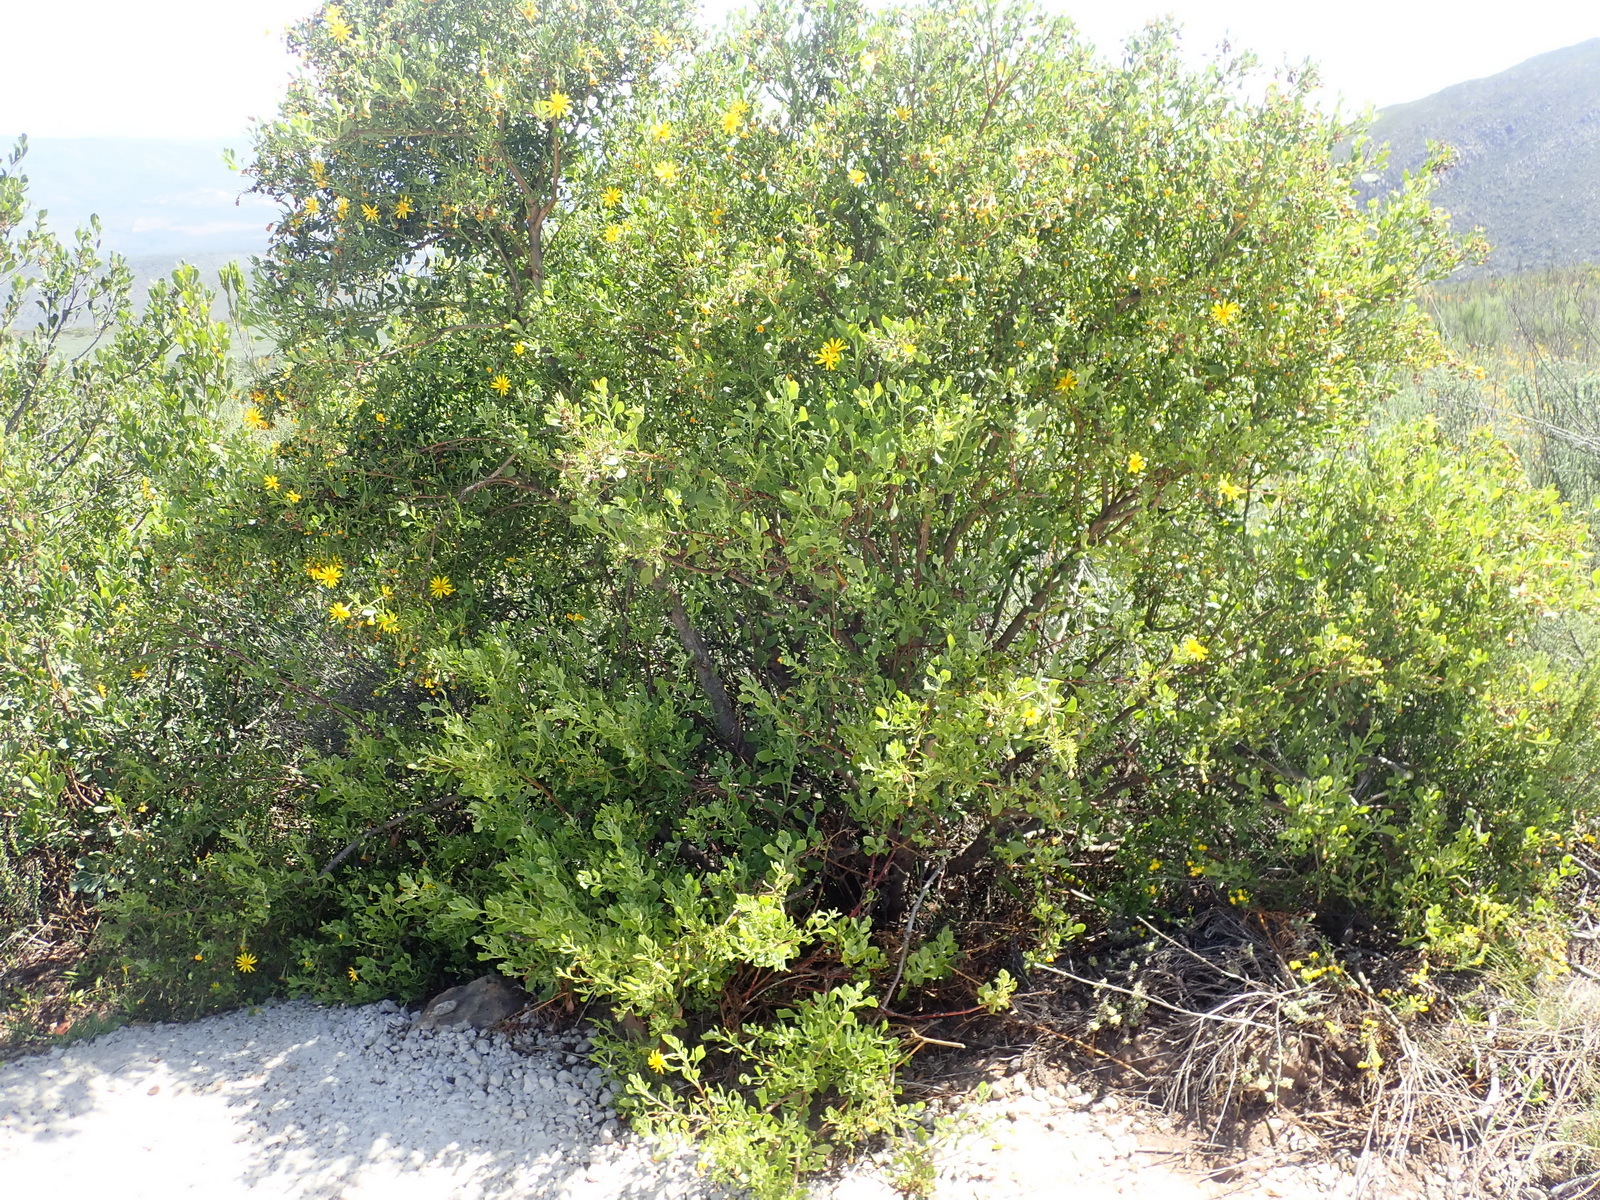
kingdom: Plantae
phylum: Tracheophyta
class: Magnoliopsida
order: Asterales
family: Asteraceae
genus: Osteospermum
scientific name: Osteospermum moniliferum
